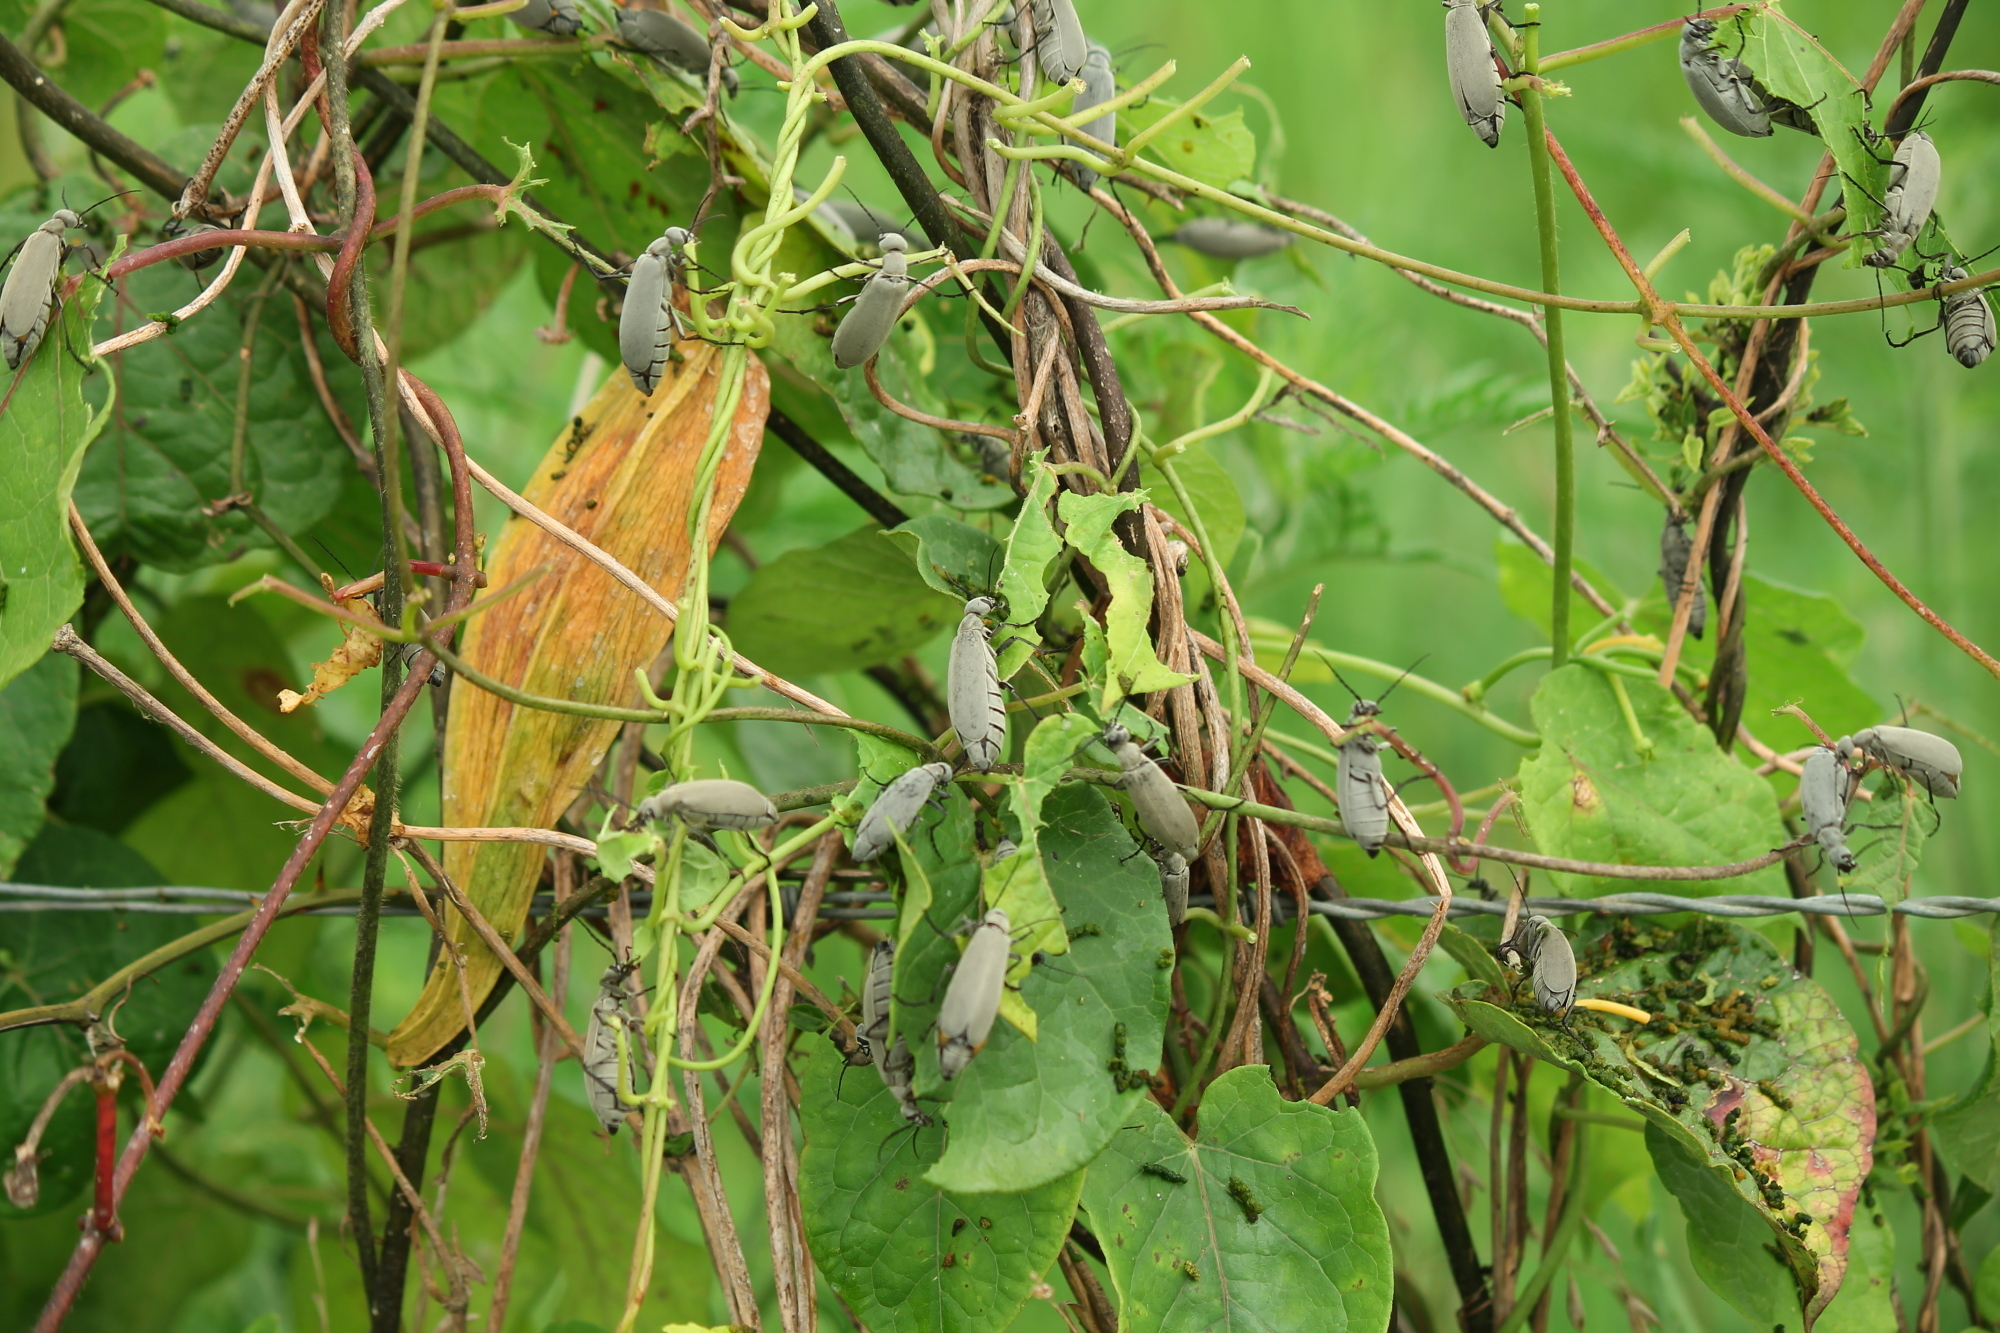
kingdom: Animalia
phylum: Arthropoda
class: Insecta
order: Coleoptera
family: Meloidae
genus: Epicauta
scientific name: Epicauta fabricii
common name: Ashgray blister beetle
